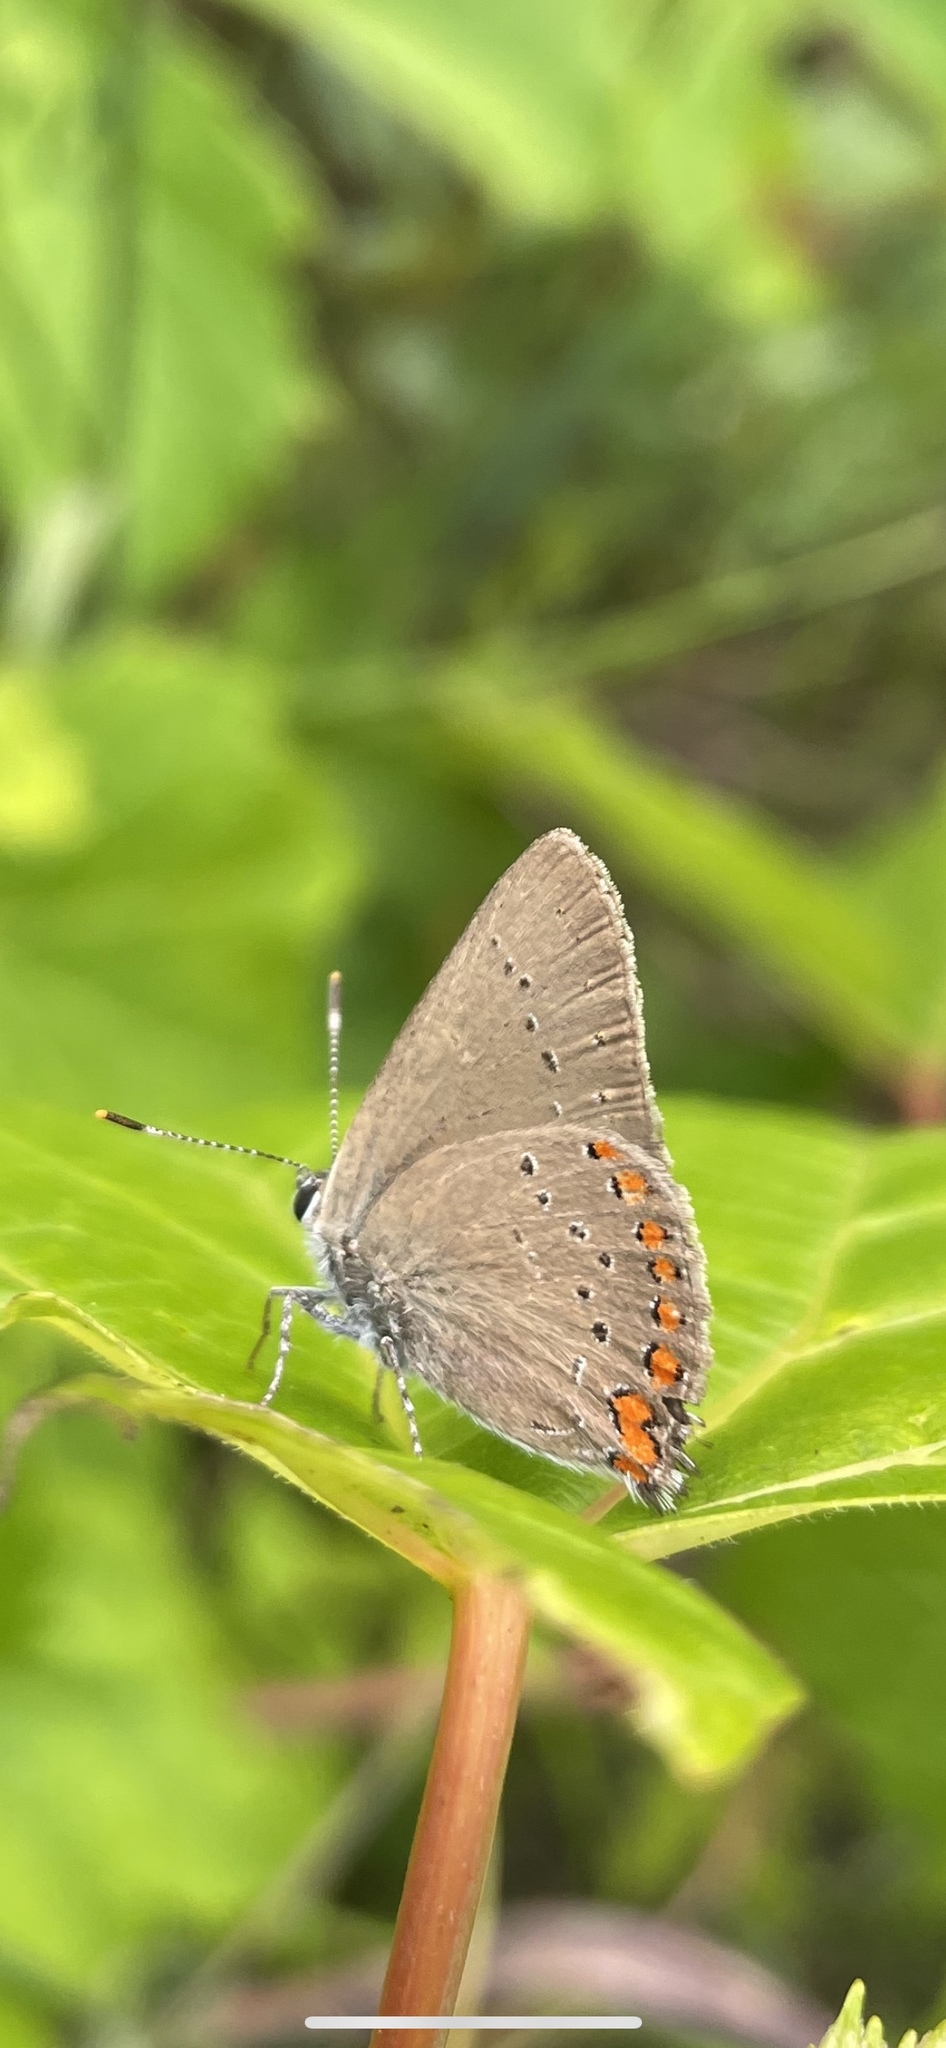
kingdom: Animalia
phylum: Arthropoda
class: Insecta
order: Lepidoptera
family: Lycaenidae
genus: Harkenclenus
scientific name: Harkenclenus titus
